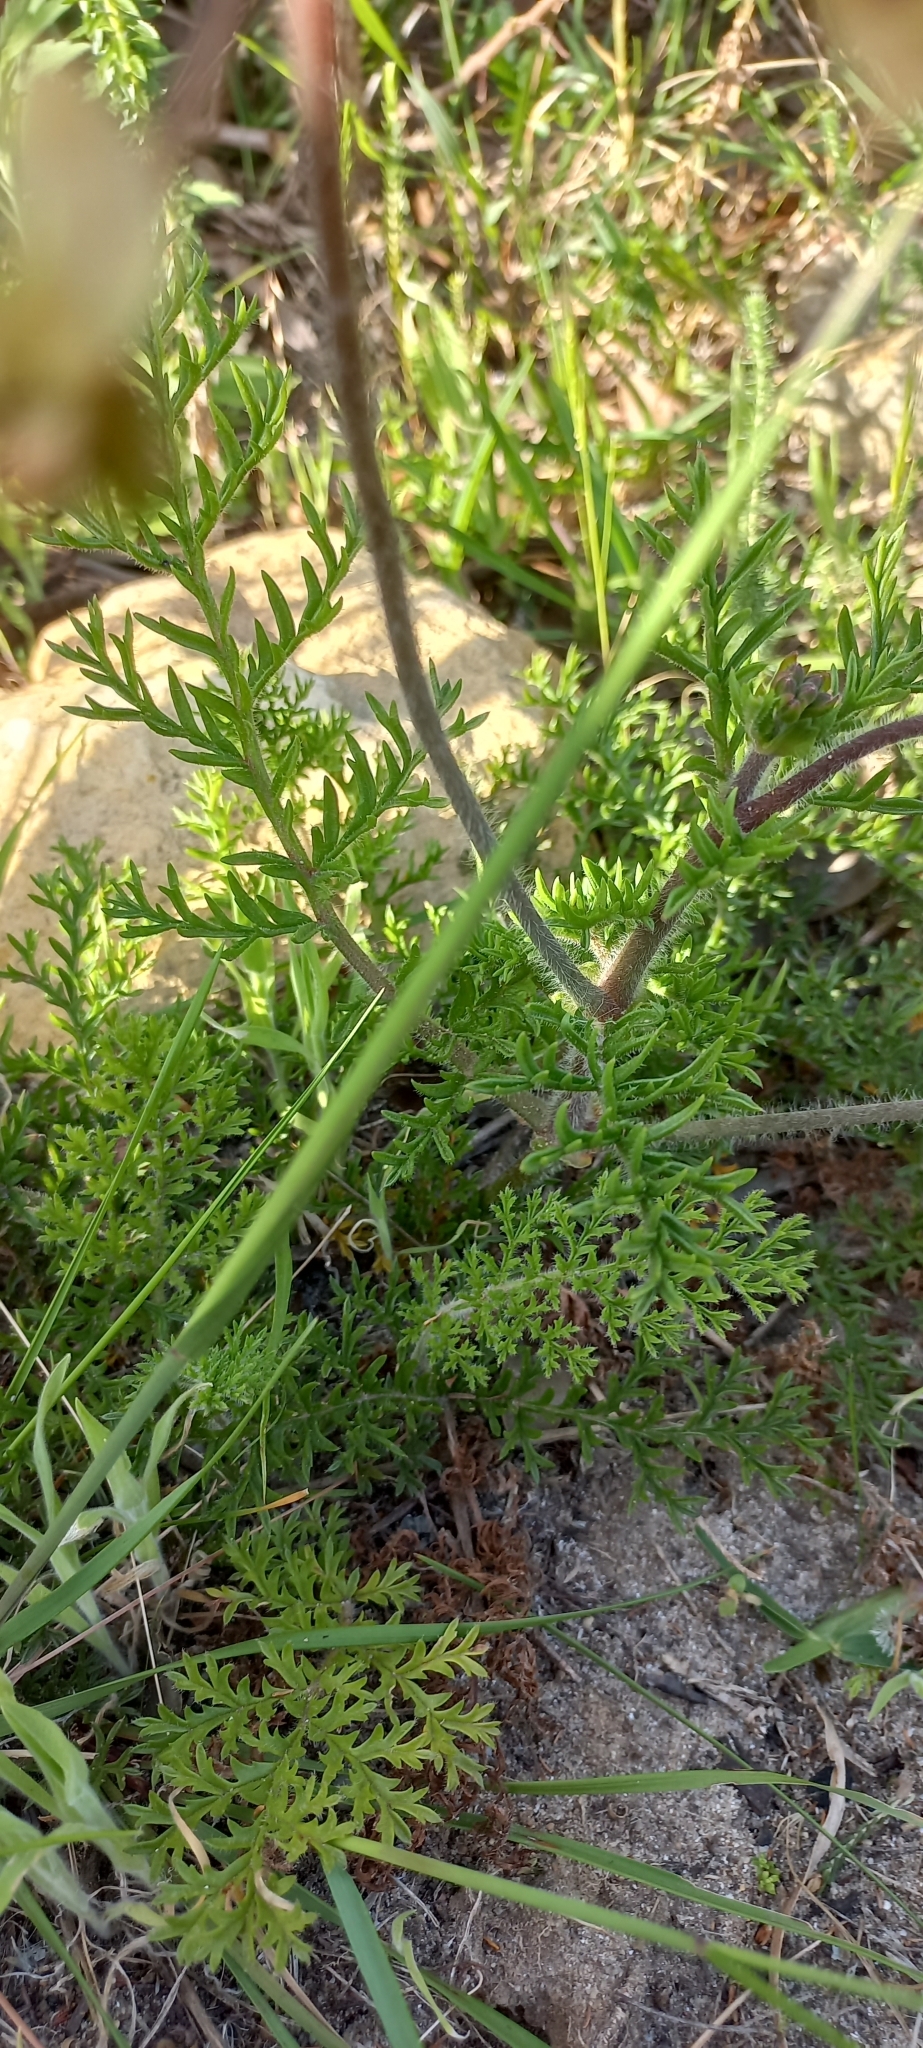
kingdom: Plantae
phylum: Tracheophyta
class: Magnoliopsida
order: Geraniales
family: Geraniaceae
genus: Pelargonium
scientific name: Pelargonium triste
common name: Night-scent pelargonium
